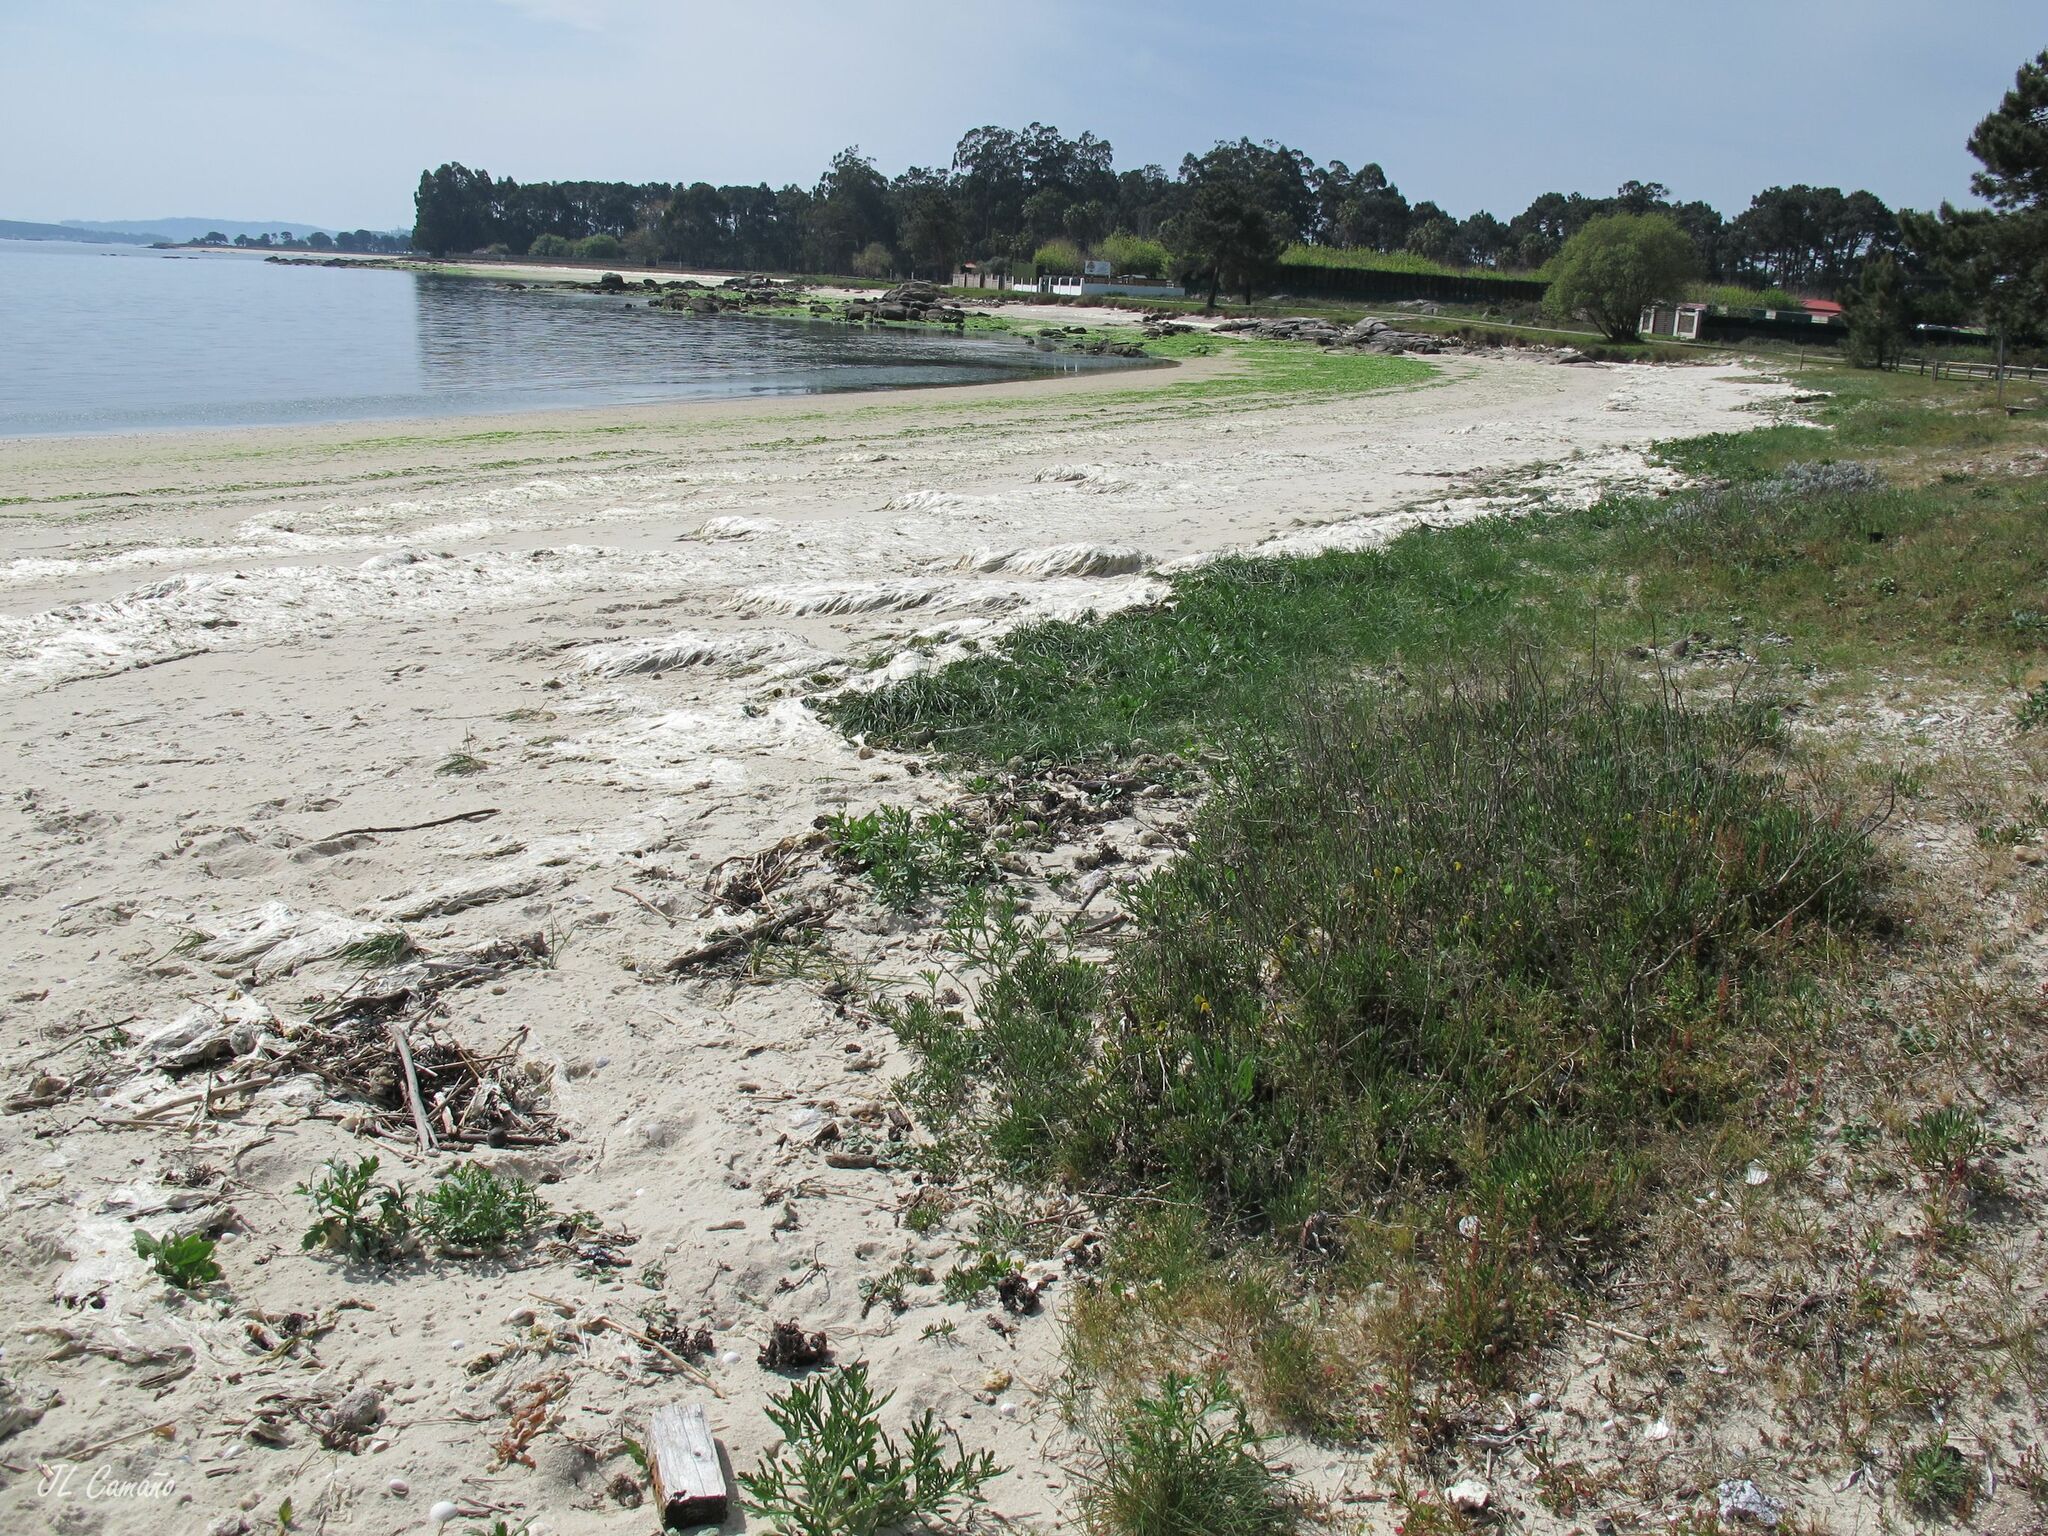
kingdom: Plantae
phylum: Tracheophyta
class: Magnoliopsida
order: Caryophyllales
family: Caryophyllaceae
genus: Silene
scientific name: Silene littorea
